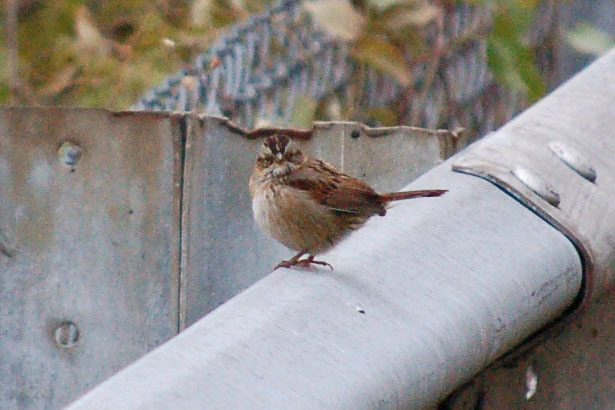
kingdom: Animalia
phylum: Chordata
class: Aves
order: Passeriformes
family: Passerellidae
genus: Melospiza
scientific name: Melospiza georgiana
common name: Swamp sparrow
